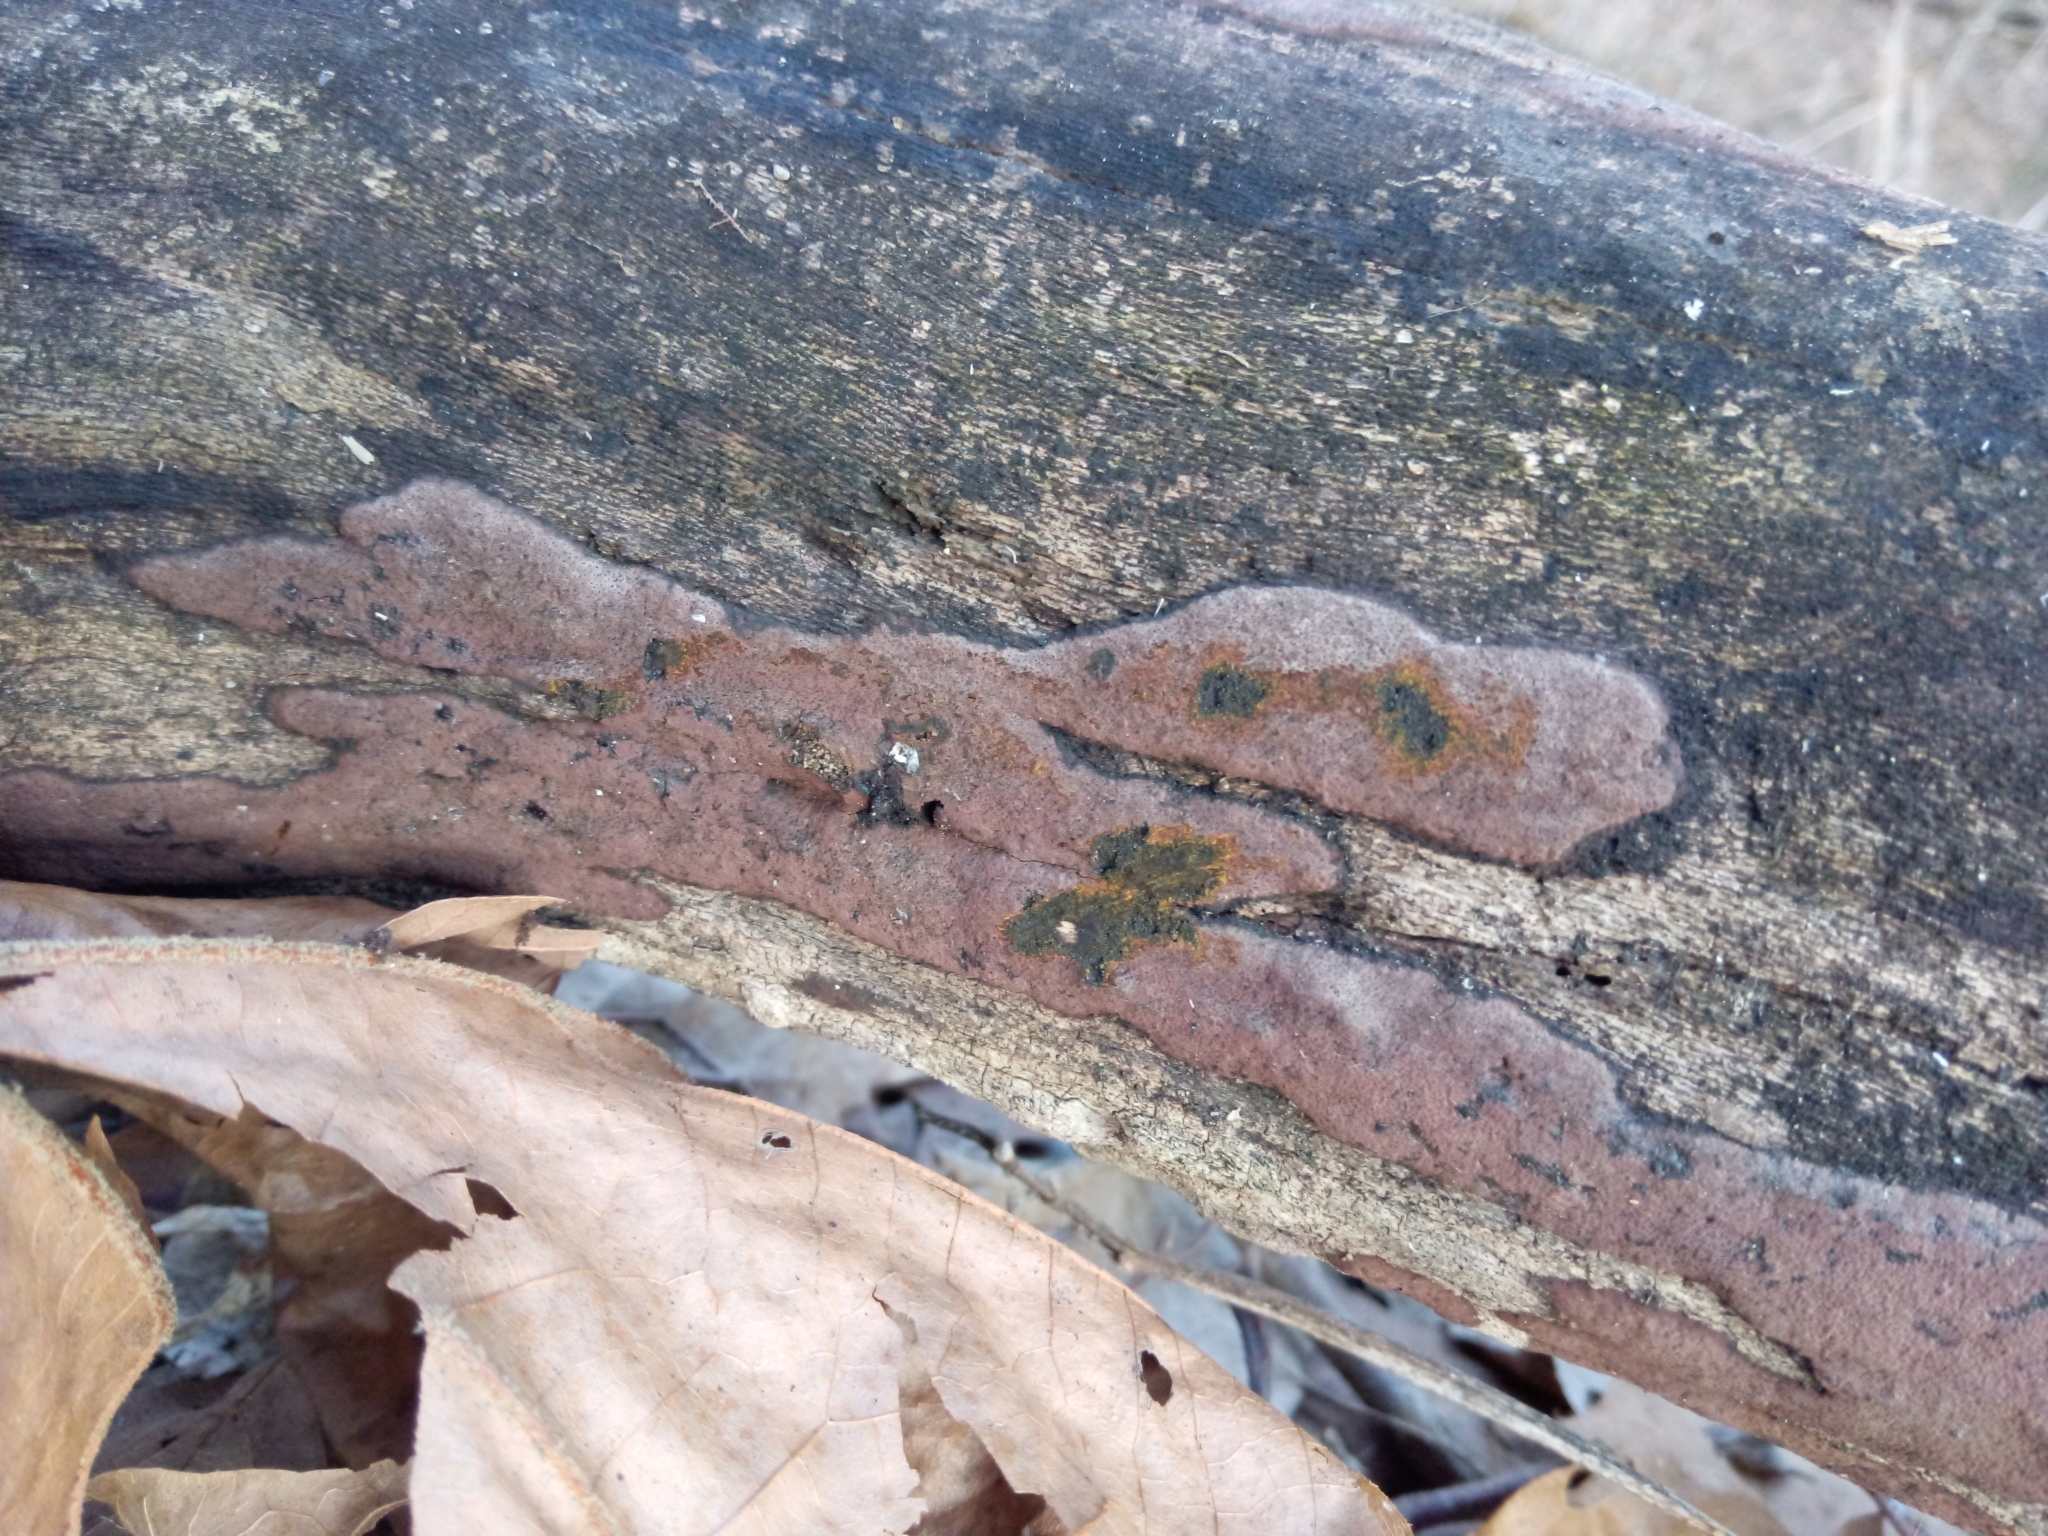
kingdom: Fungi
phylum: Ascomycota
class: Sordariomycetes
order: Xylariales
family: Hypoxylaceae
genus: Hypoxylon
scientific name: Hypoxylon rubiginosum
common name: Rusty woodwart
